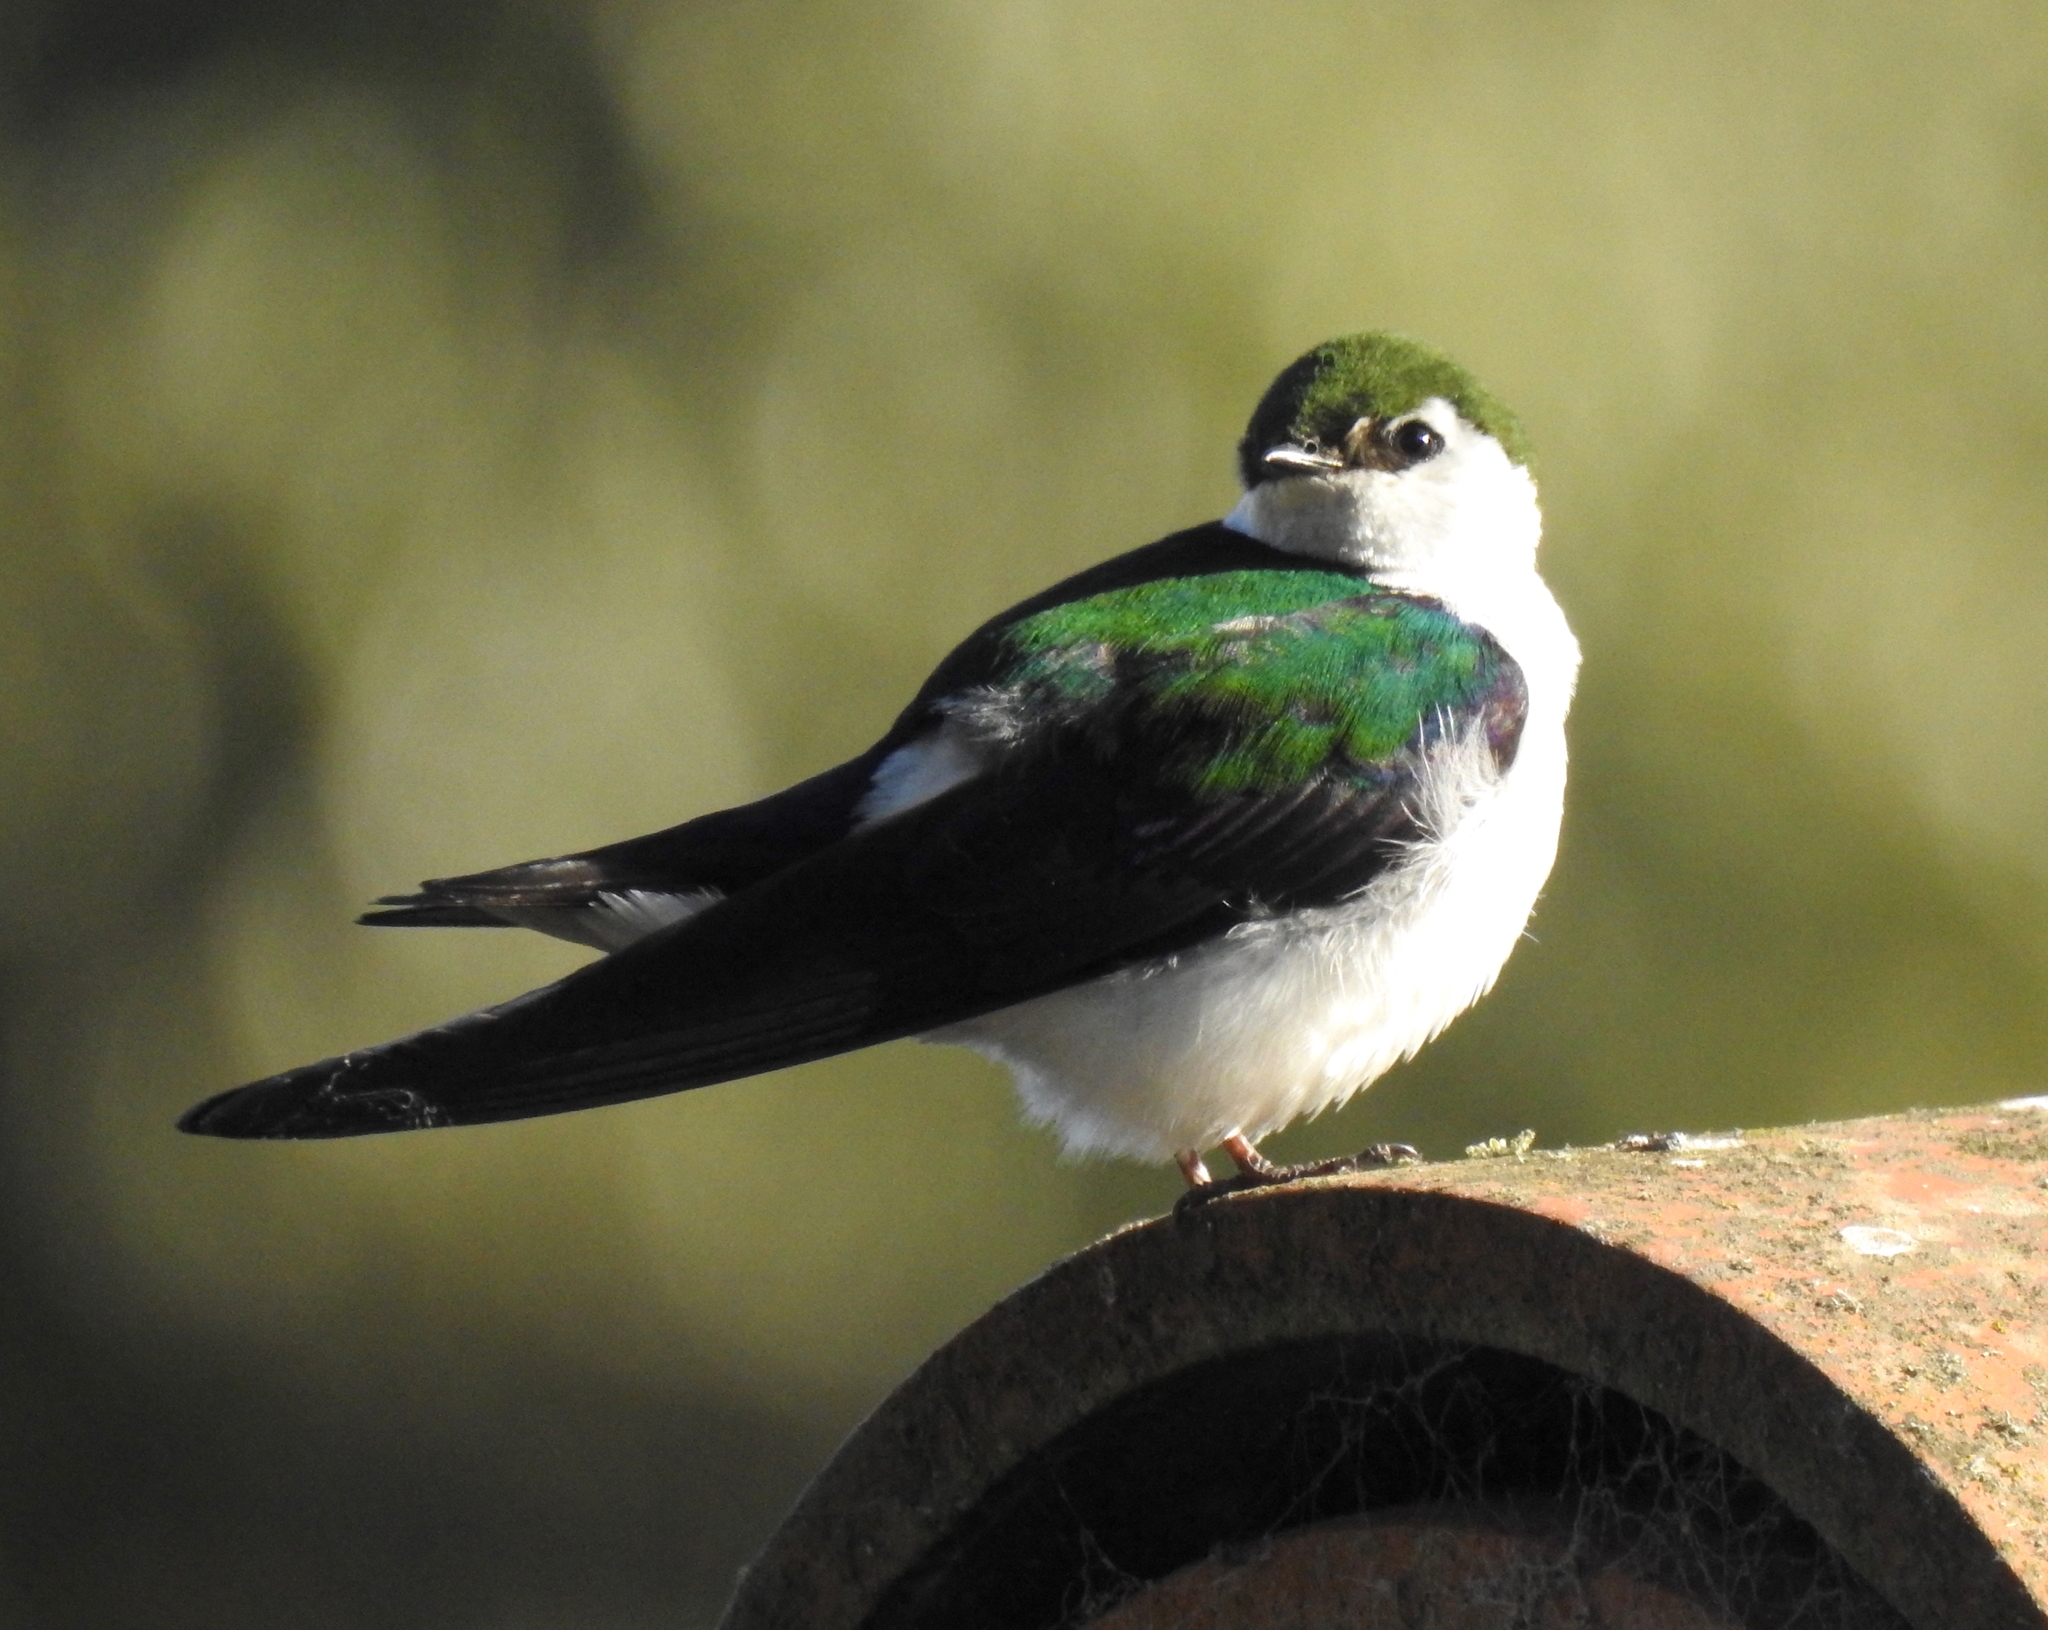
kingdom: Animalia
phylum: Chordata
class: Aves
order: Passeriformes
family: Hirundinidae
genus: Tachycineta
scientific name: Tachycineta thalassina
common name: Violet-green swallow
